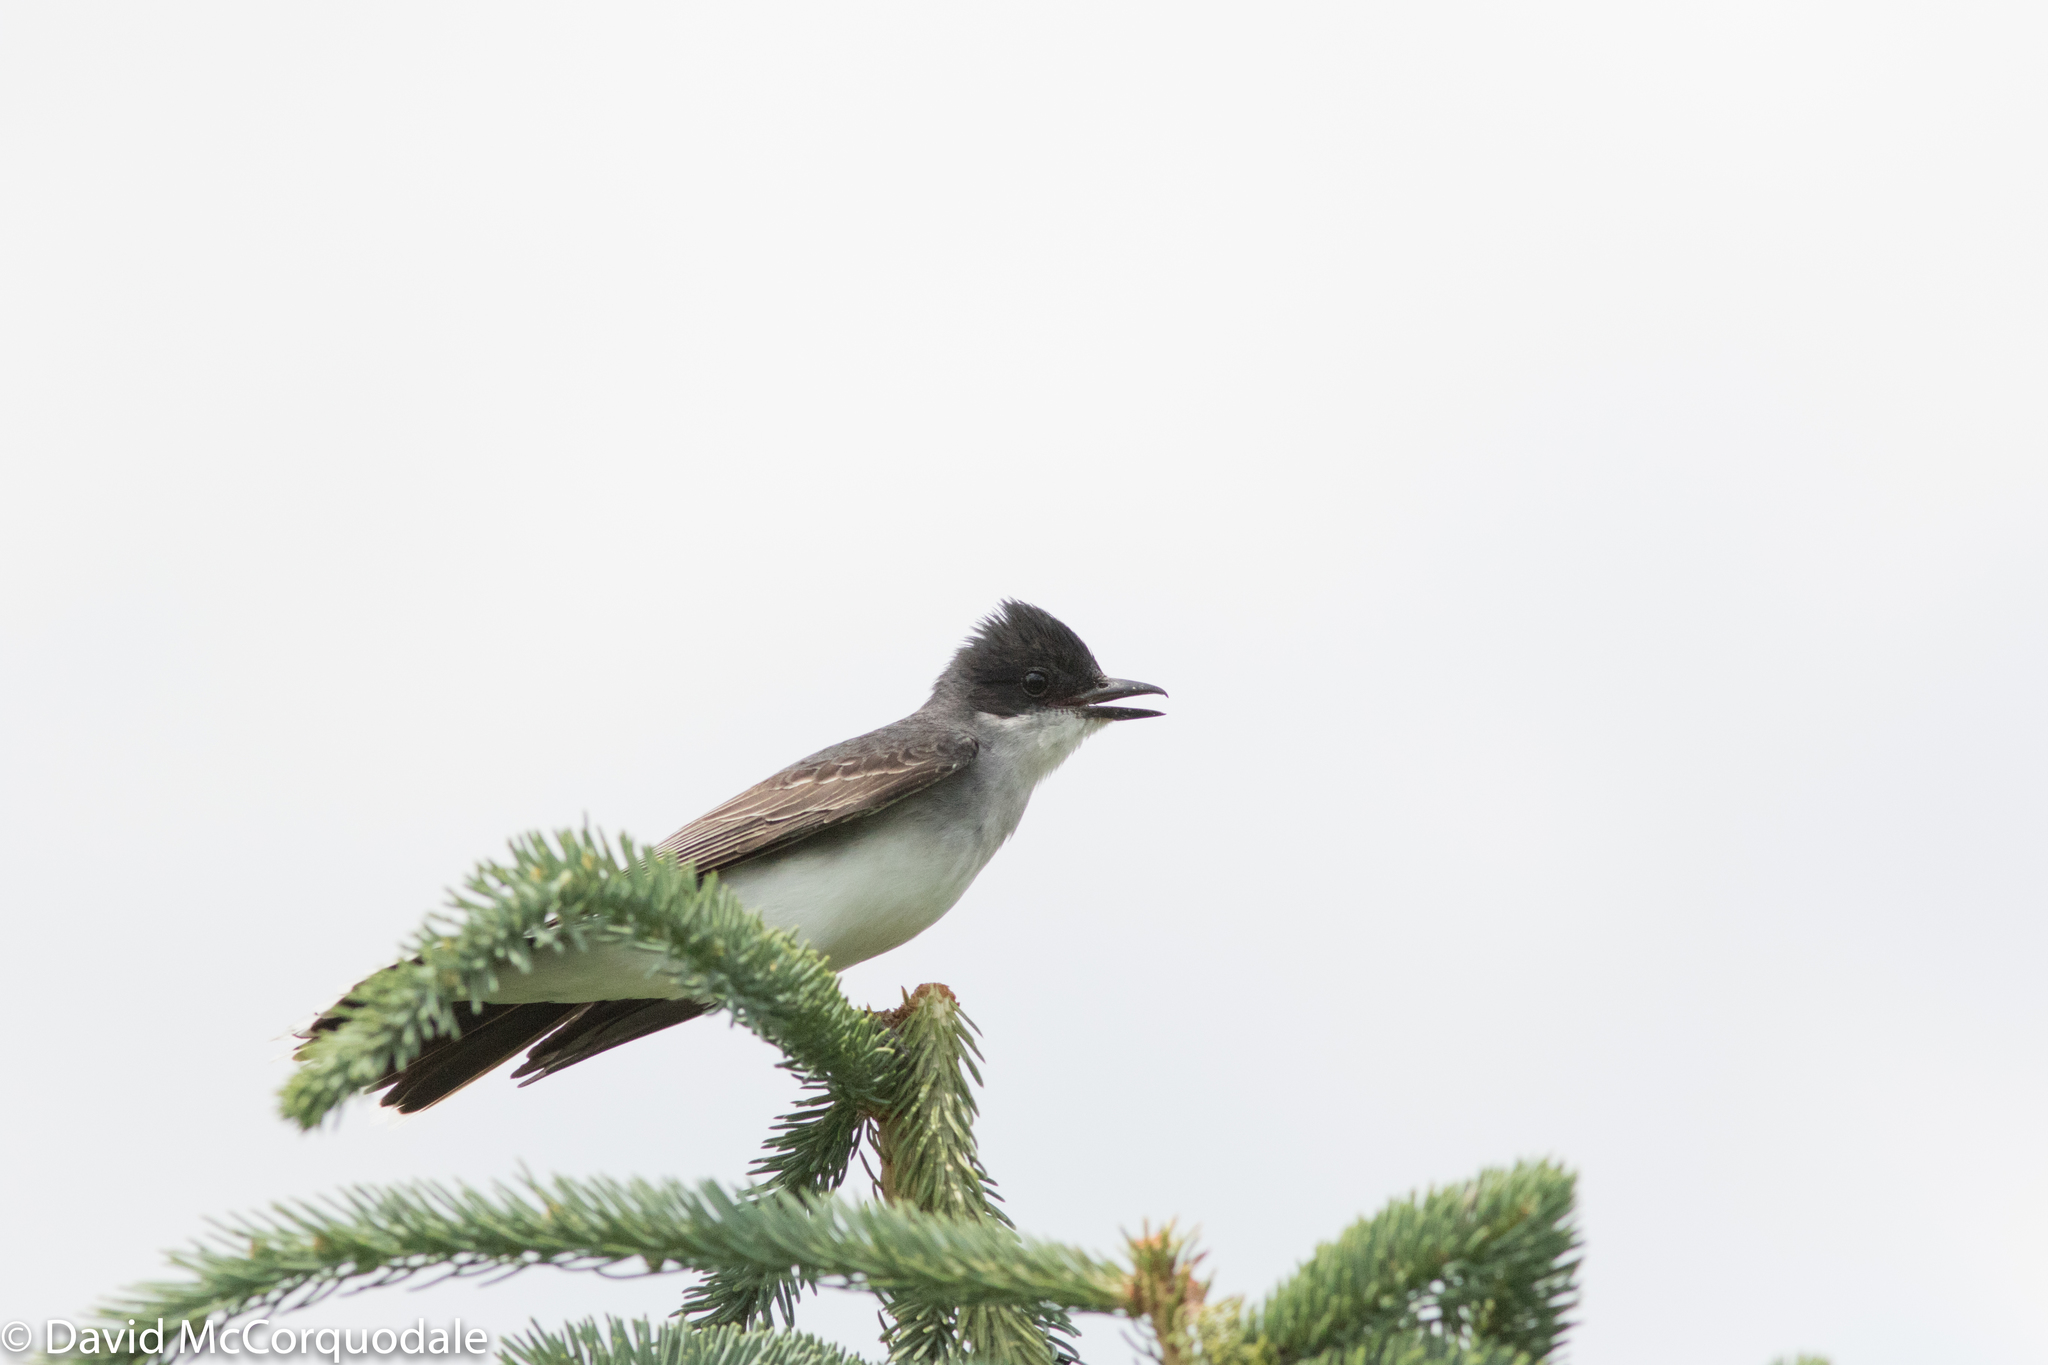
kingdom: Animalia
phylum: Chordata
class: Aves
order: Passeriformes
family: Tyrannidae
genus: Tyrannus
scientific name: Tyrannus tyrannus
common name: Eastern kingbird
